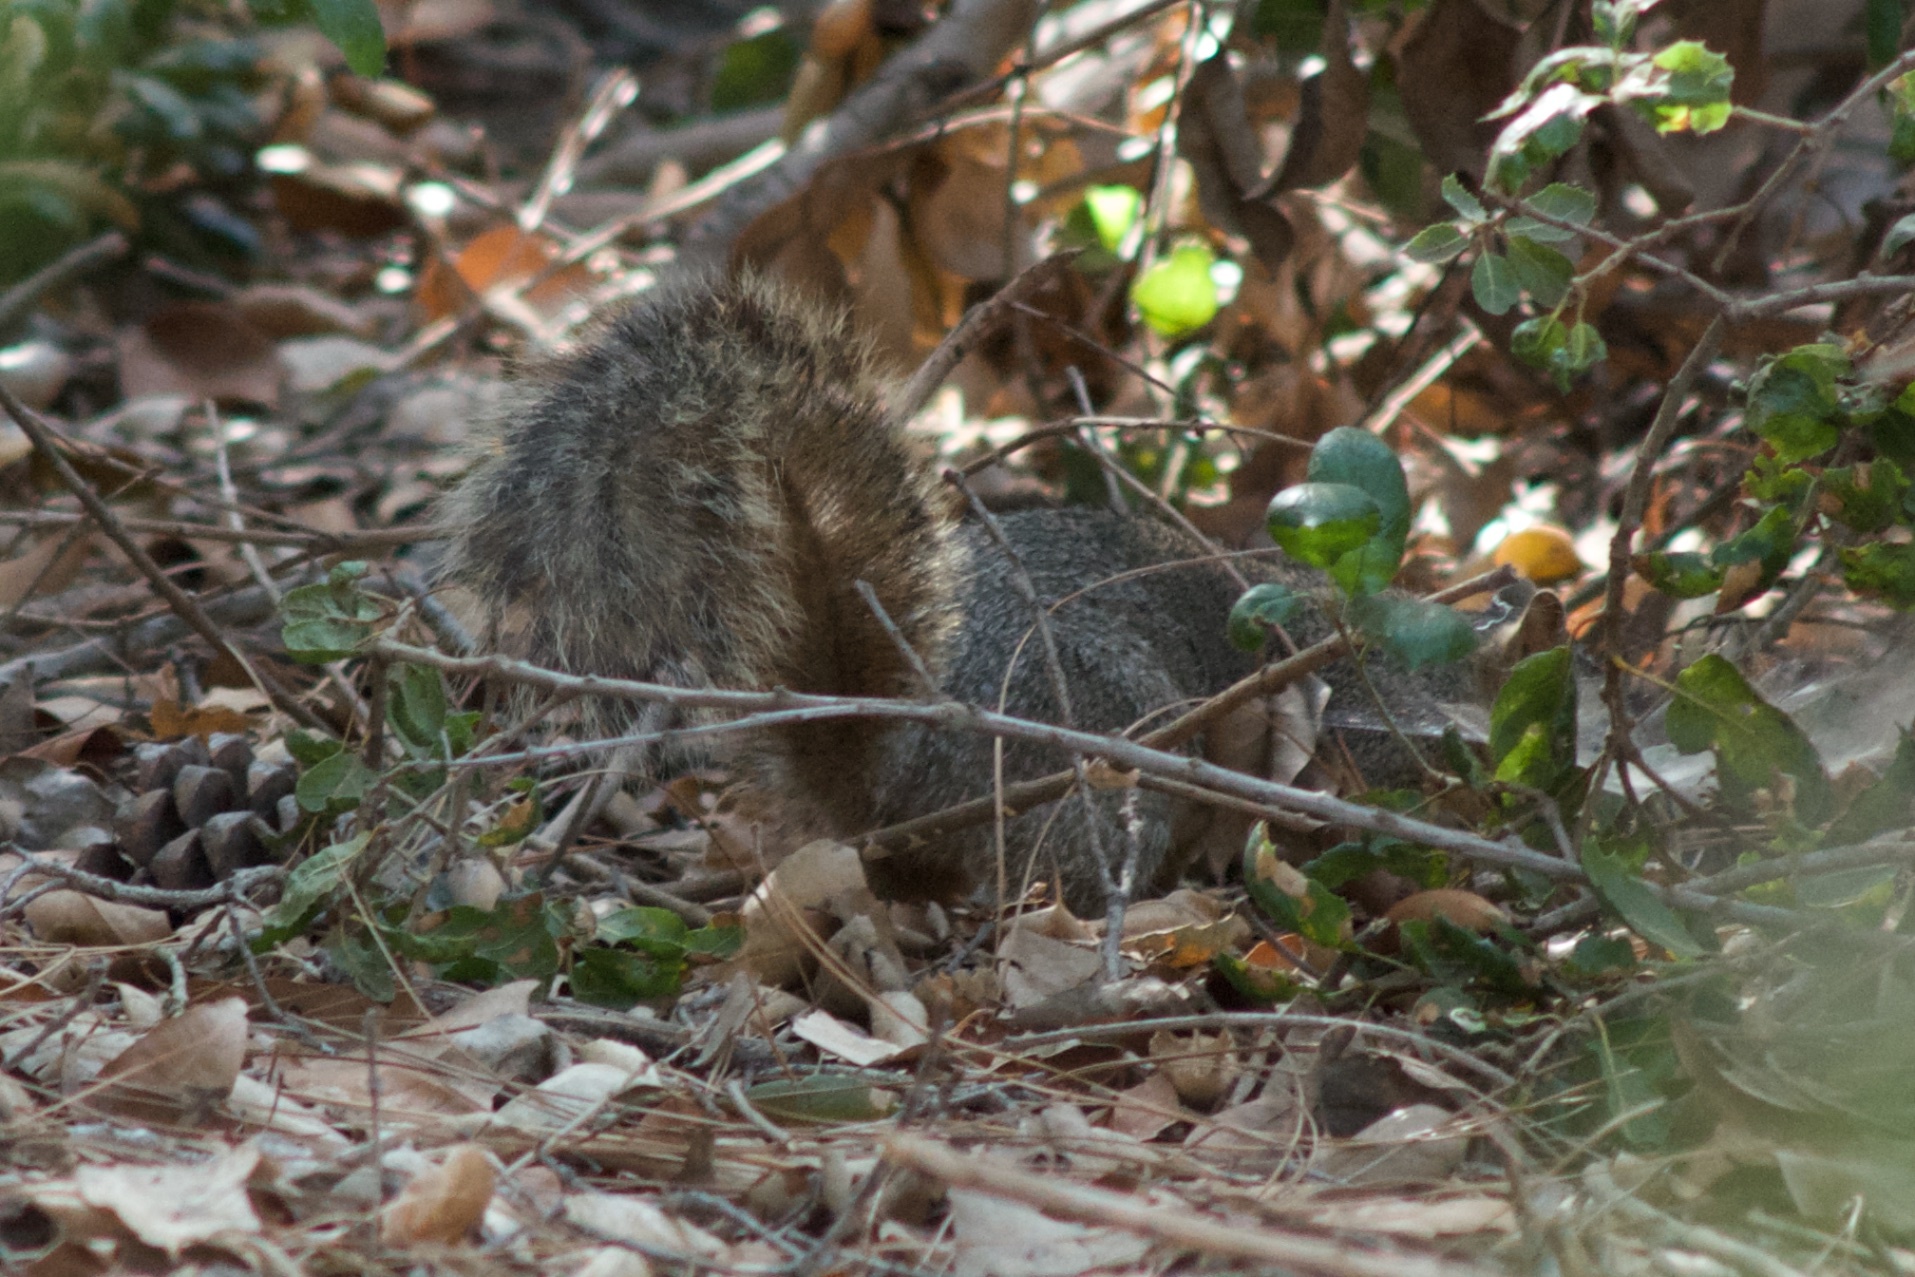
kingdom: Animalia
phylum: Chordata
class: Mammalia
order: Rodentia
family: Sciuridae
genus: Sciurus
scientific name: Sciurus niger
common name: Fox squirrel
